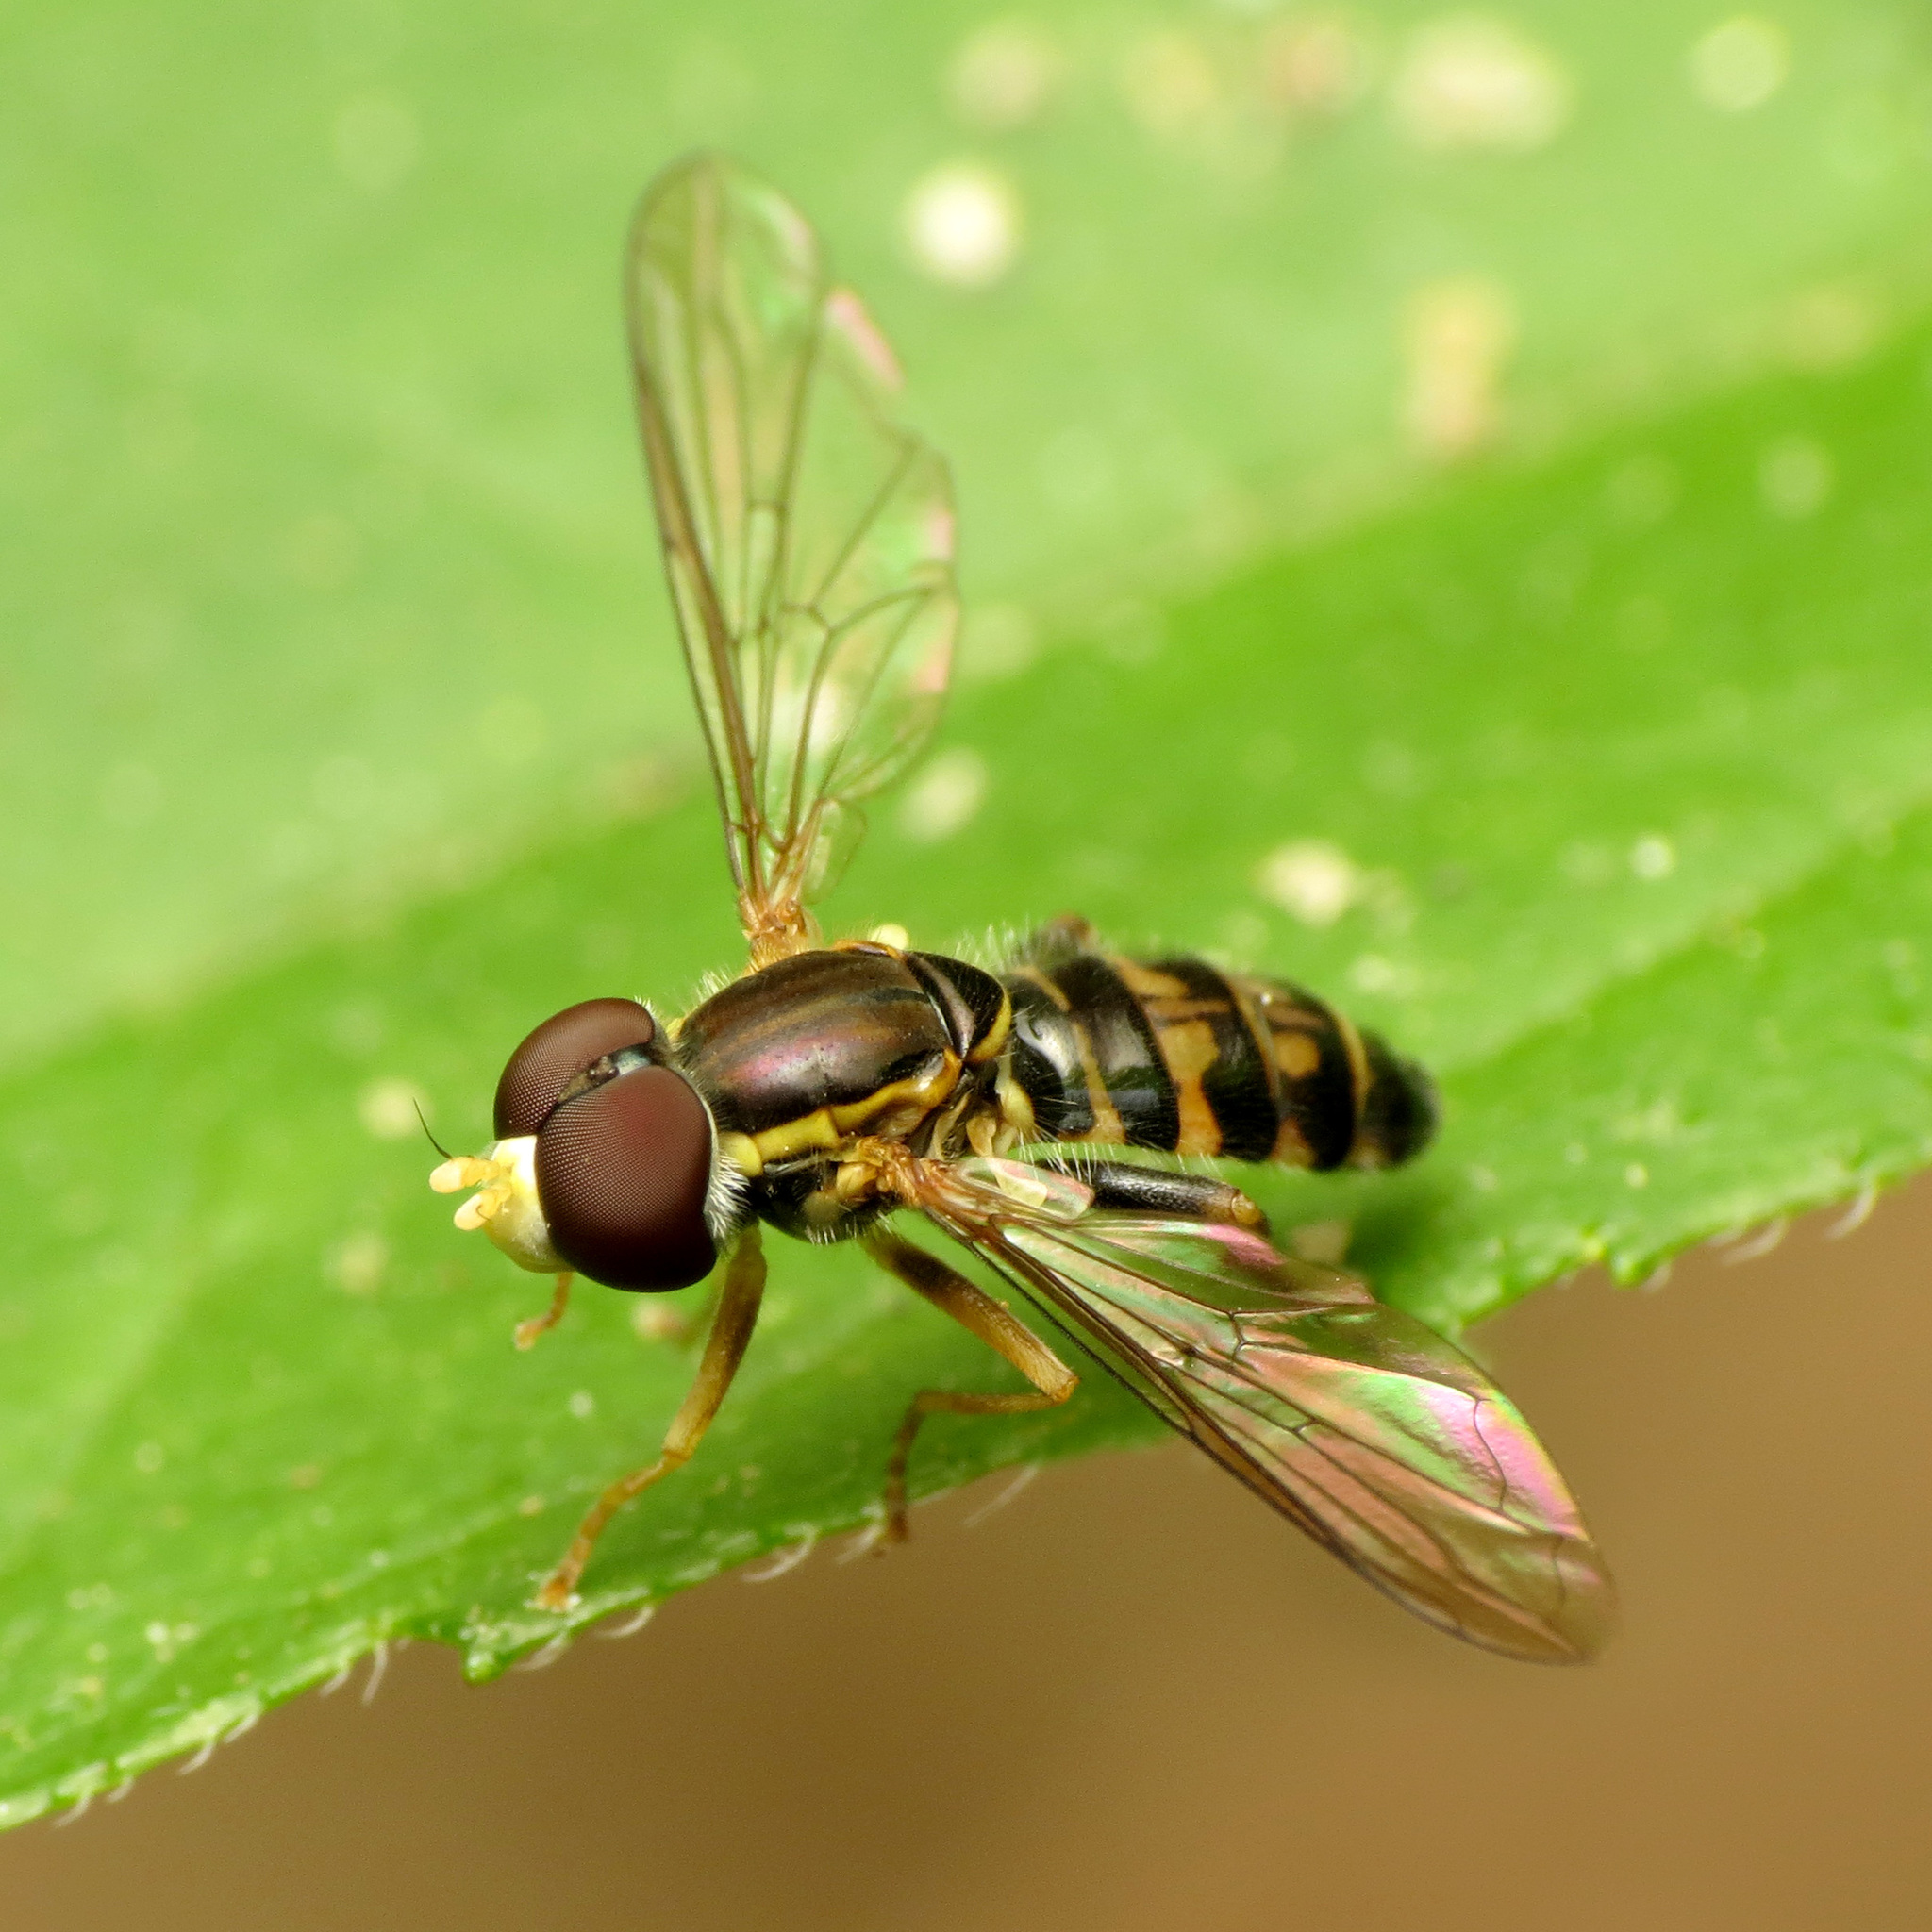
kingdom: Animalia
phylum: Arthropoda
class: Insecta
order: Diptera
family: Syrphidae
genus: Toxomerus
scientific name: Toxomerus geminatus
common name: Eastern calligrapher
